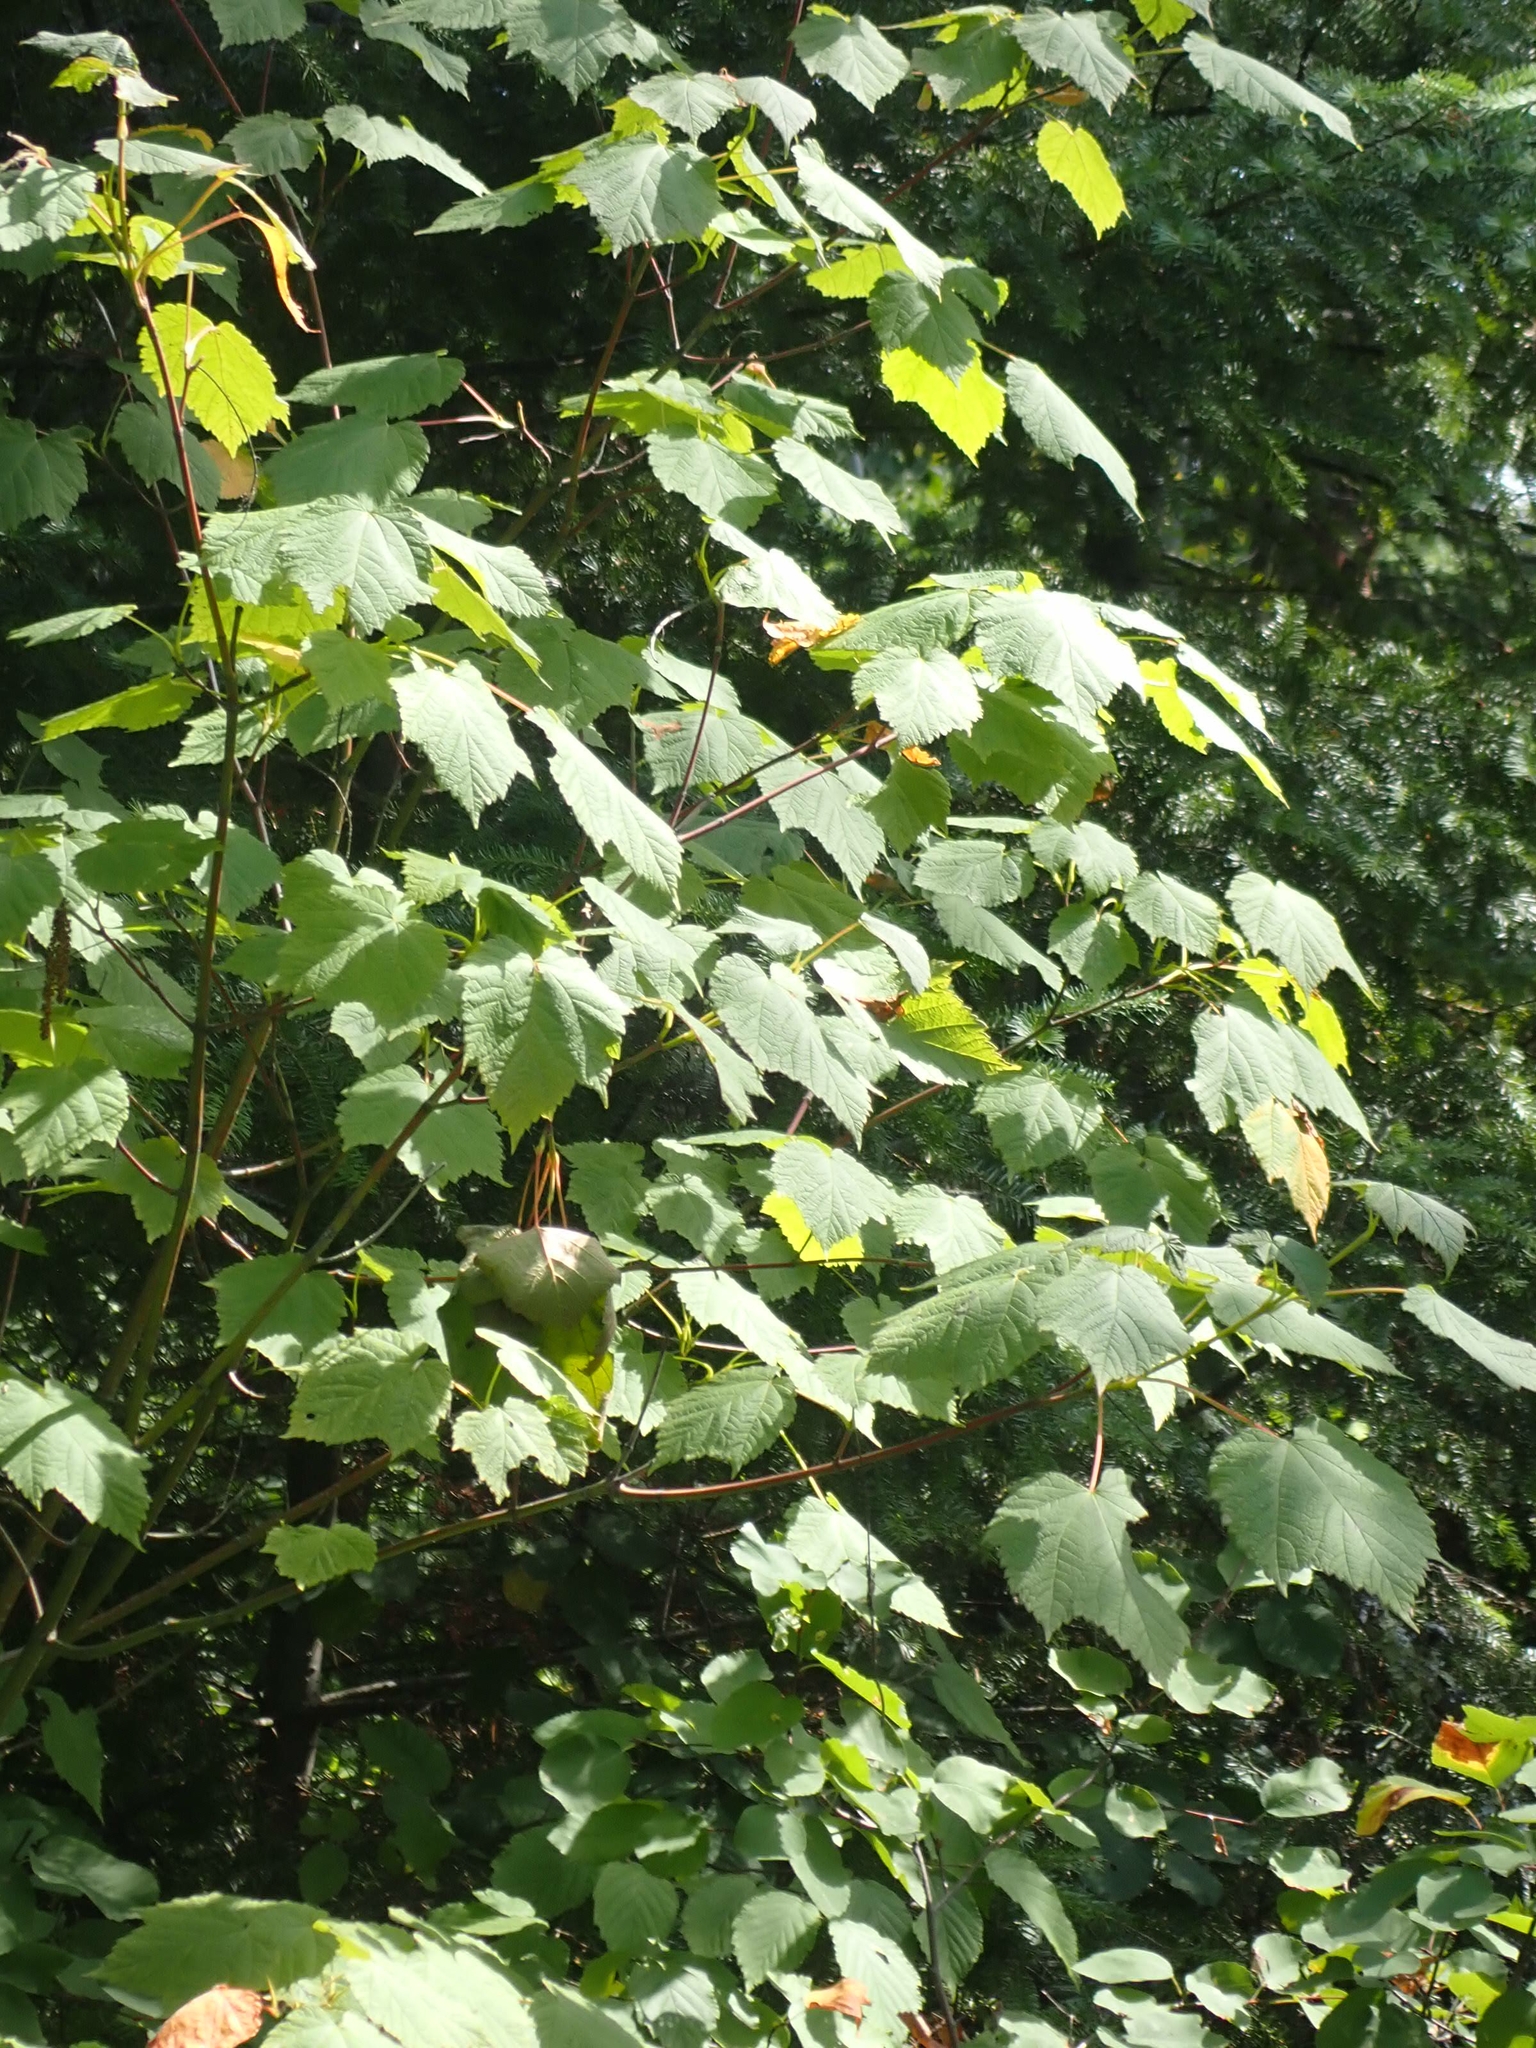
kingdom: Plantae
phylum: Tracheophyta
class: Magnoliopsida
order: Sapindales
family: Sapindaceae
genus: Acer
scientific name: Acer spicatum
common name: Mountain maple
